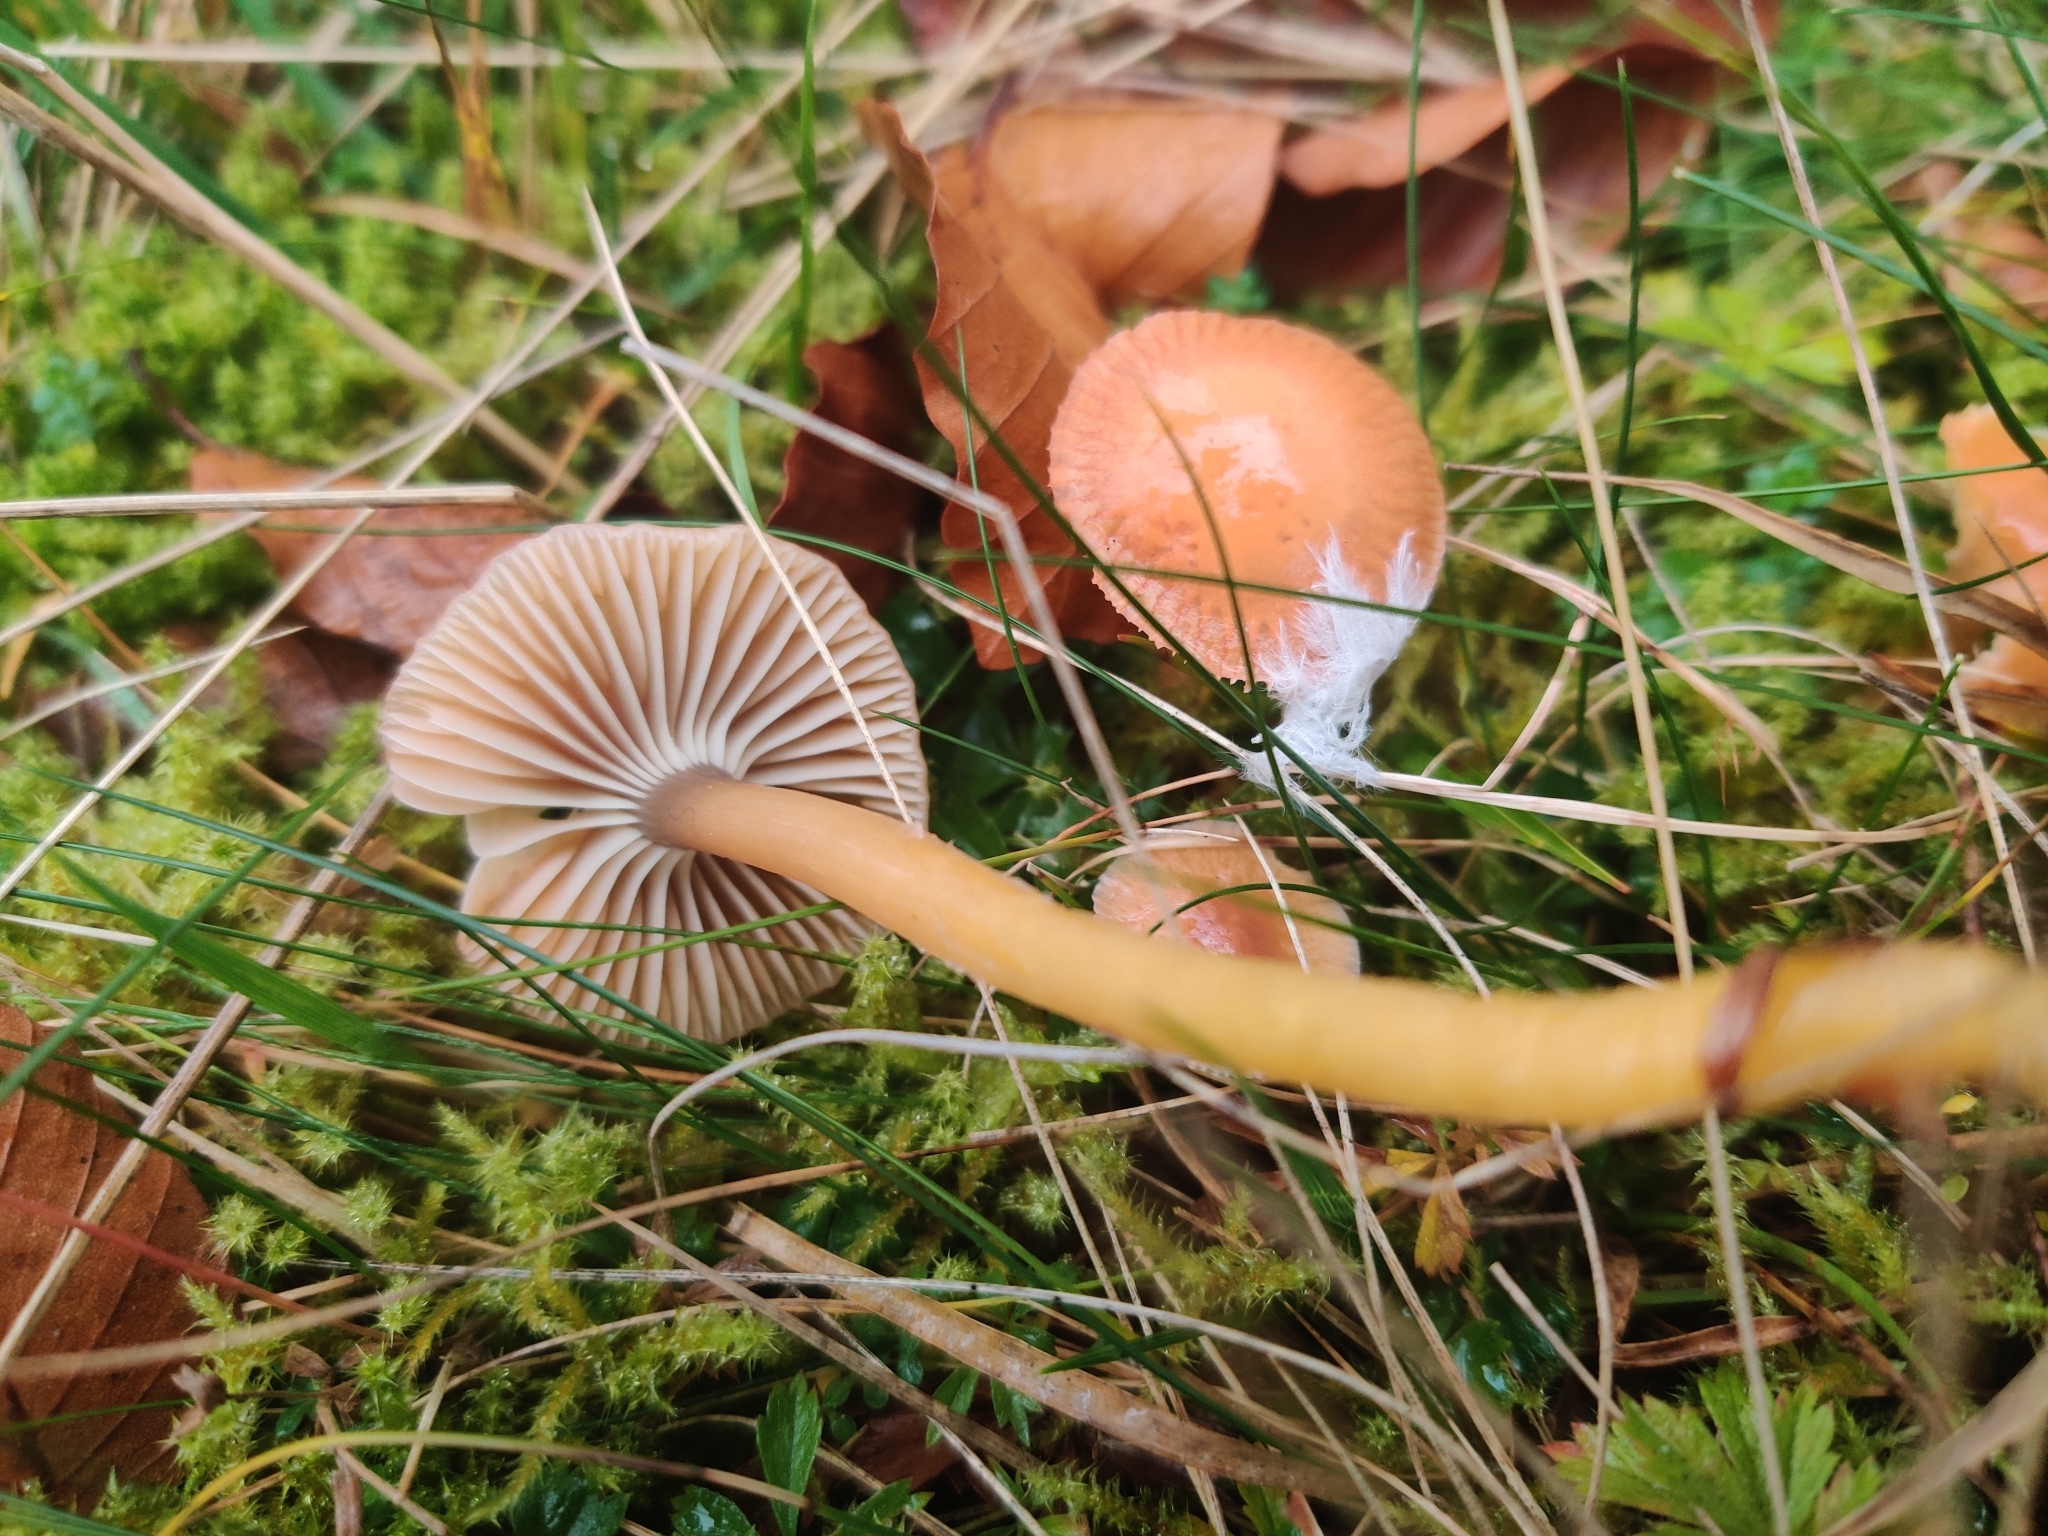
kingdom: Fungi
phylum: Basidiomycota
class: Agaricomycetes
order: Agaricales
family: Hygrophoraceae
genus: Gliophorus
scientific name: Gliophorus laetus
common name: Heath waxcap
